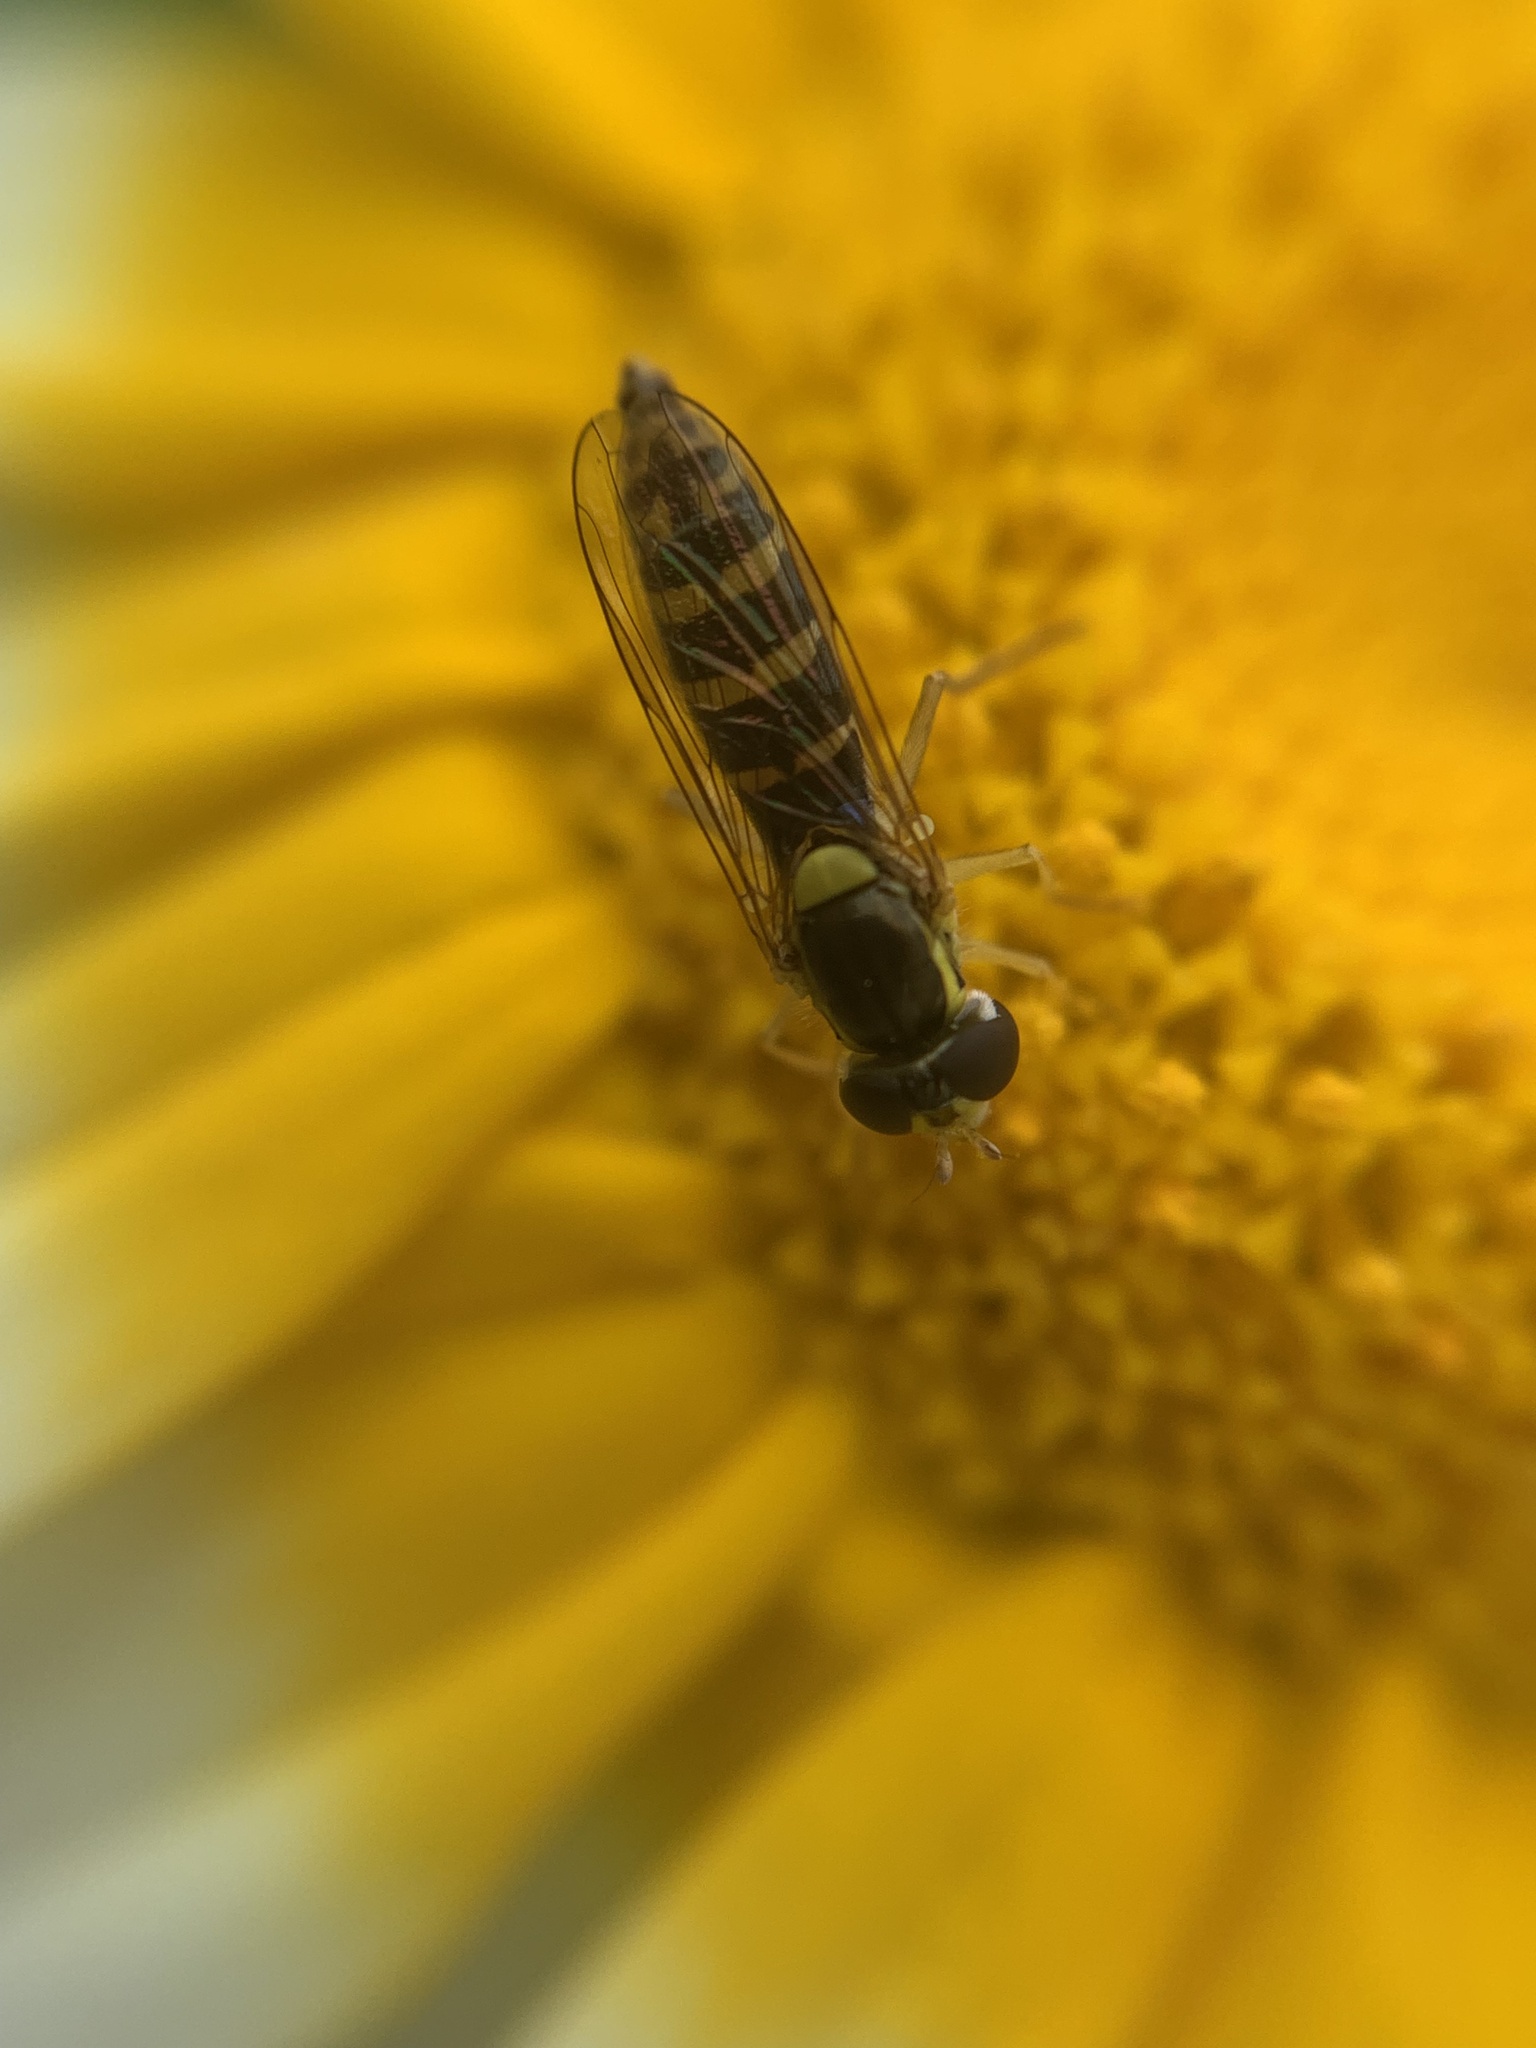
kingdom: Animalia
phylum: Arthropoda
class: Insecta
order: Diptera
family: Syrphidae
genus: Sphaerophoria
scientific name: Sphaerophoria
